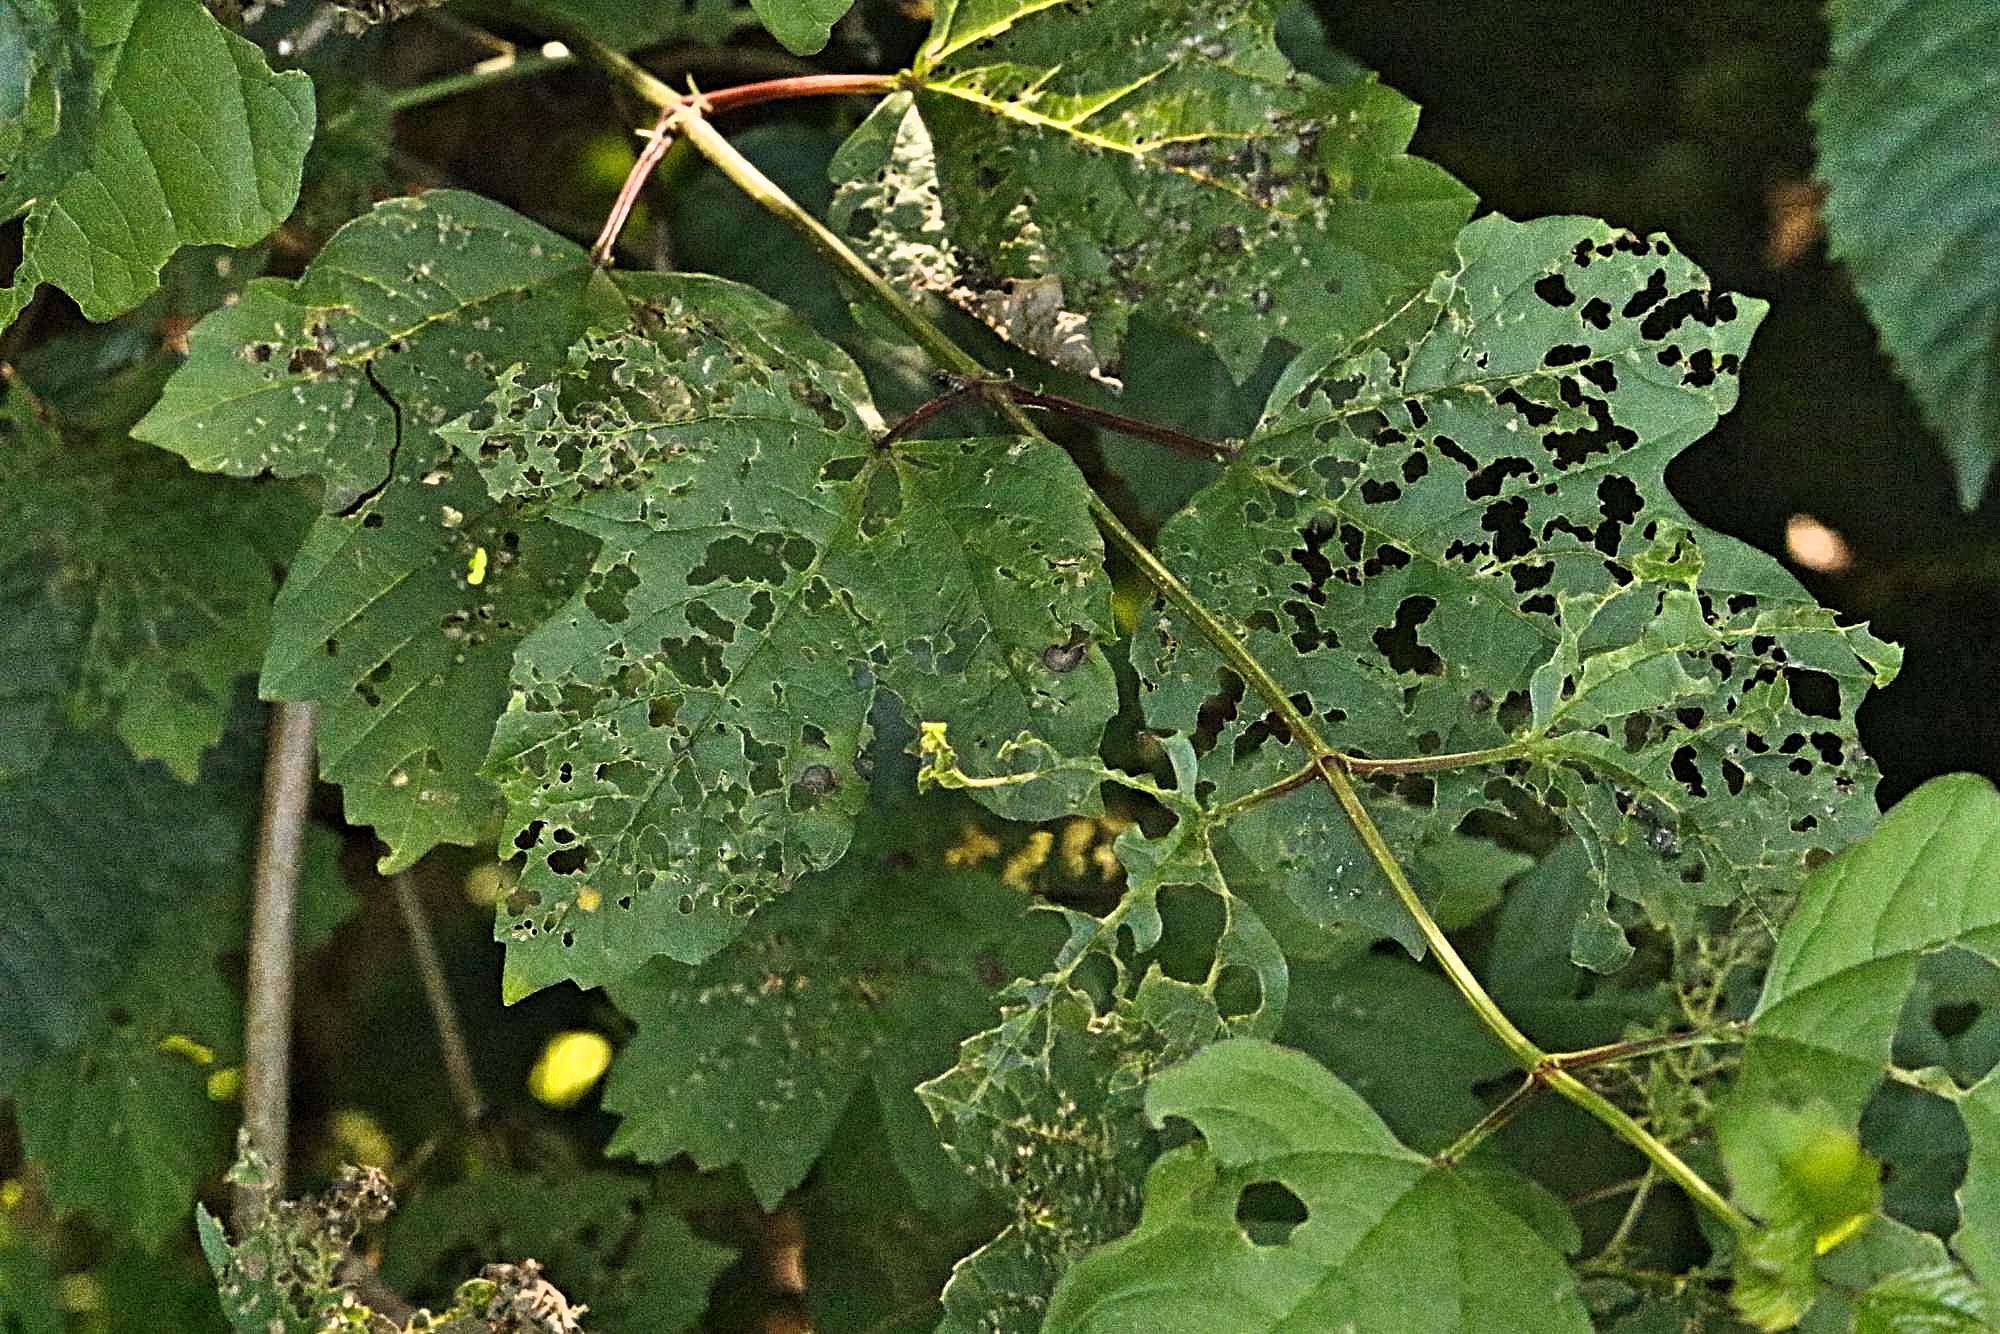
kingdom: Plantae
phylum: Tracheophyta
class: Magnoliopsida
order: Dipsacales
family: Viburnaceae
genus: Viburnum
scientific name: Viburnum opulus
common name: Guelder-rose
